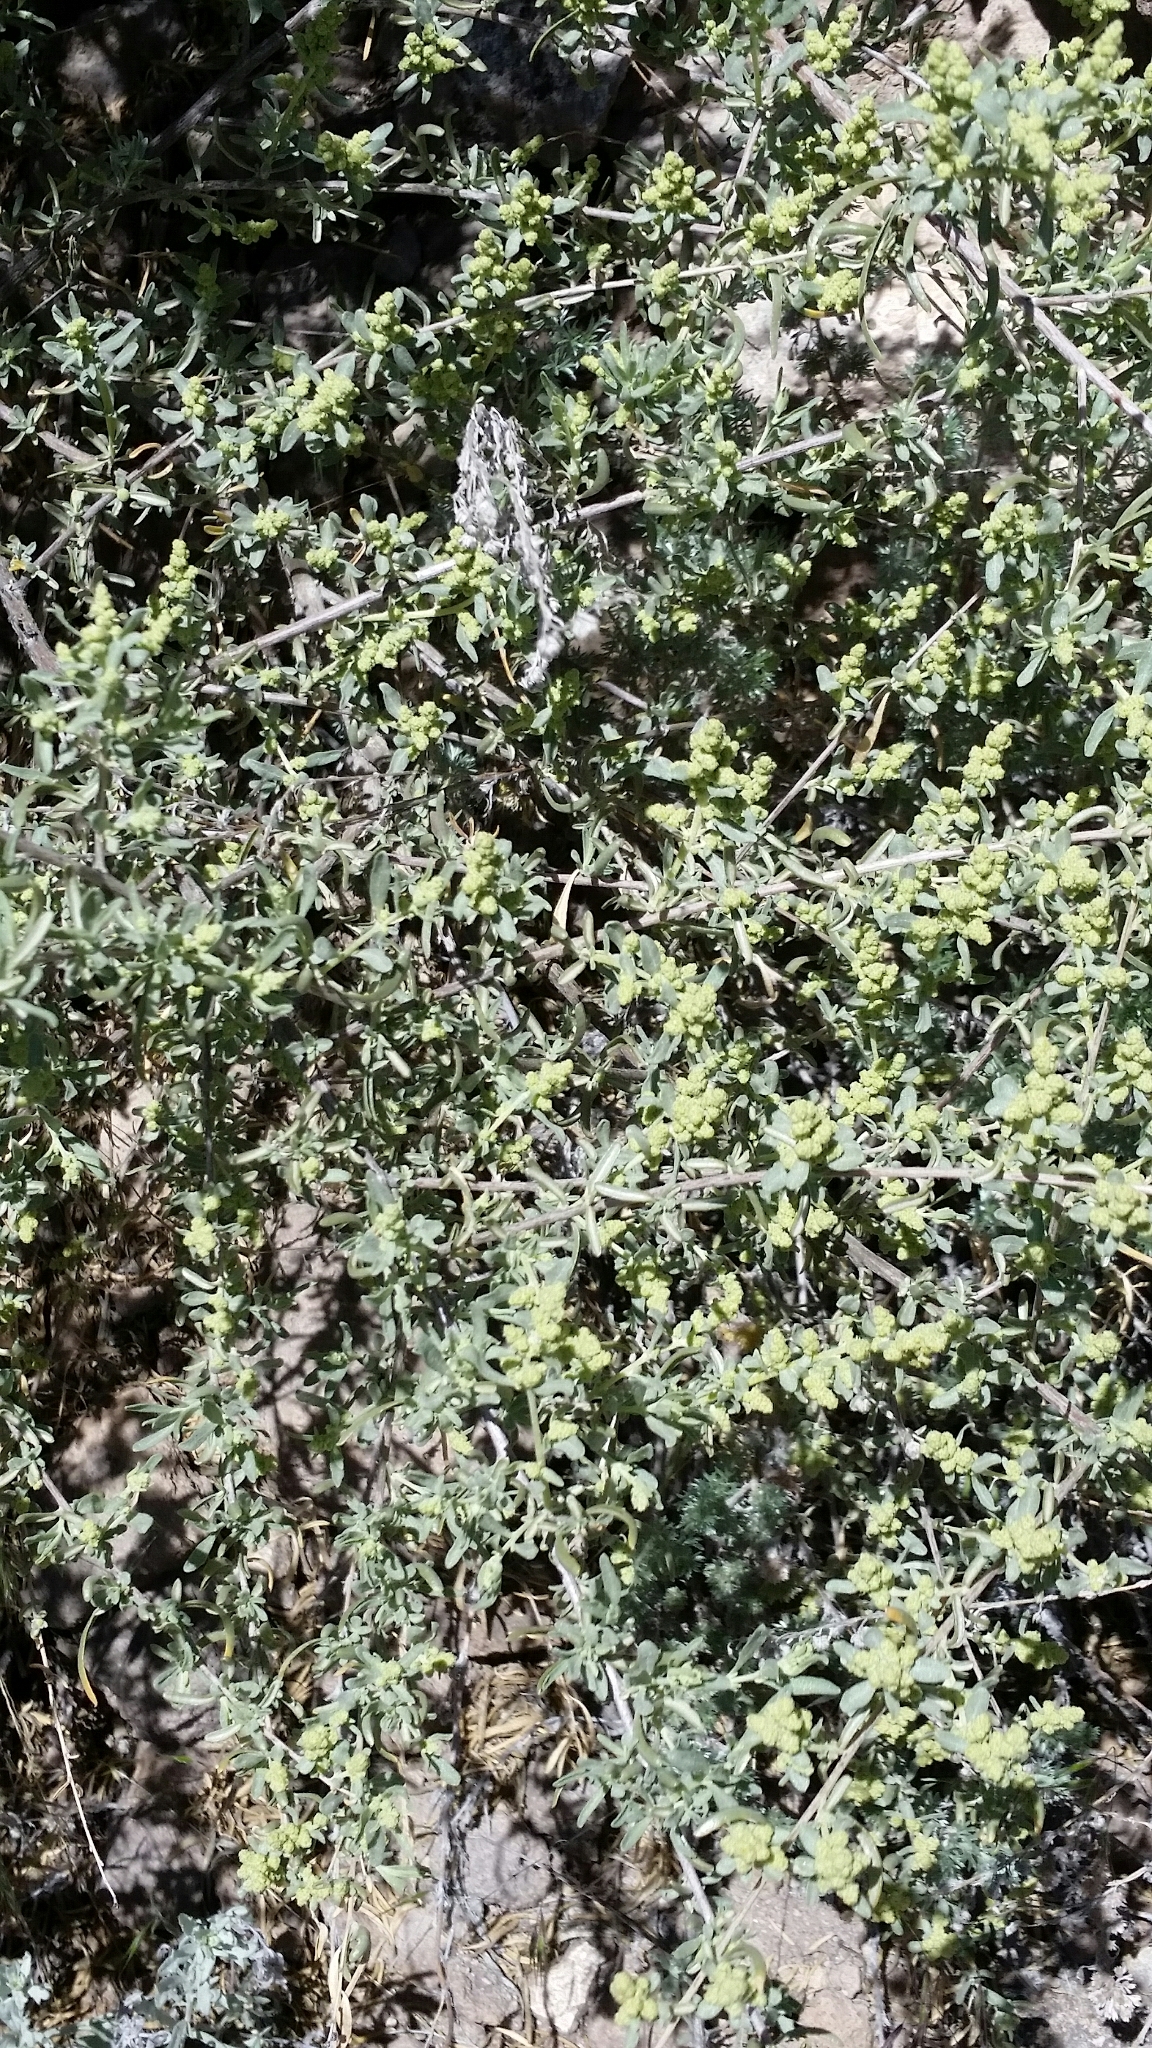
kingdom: Plantae
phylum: Tracheophyta
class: Magnoliopsida
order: Caryophyllales
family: Amaranthaceae
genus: Atriplex
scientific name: Atriplex canescens
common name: Four-wing saltbush
